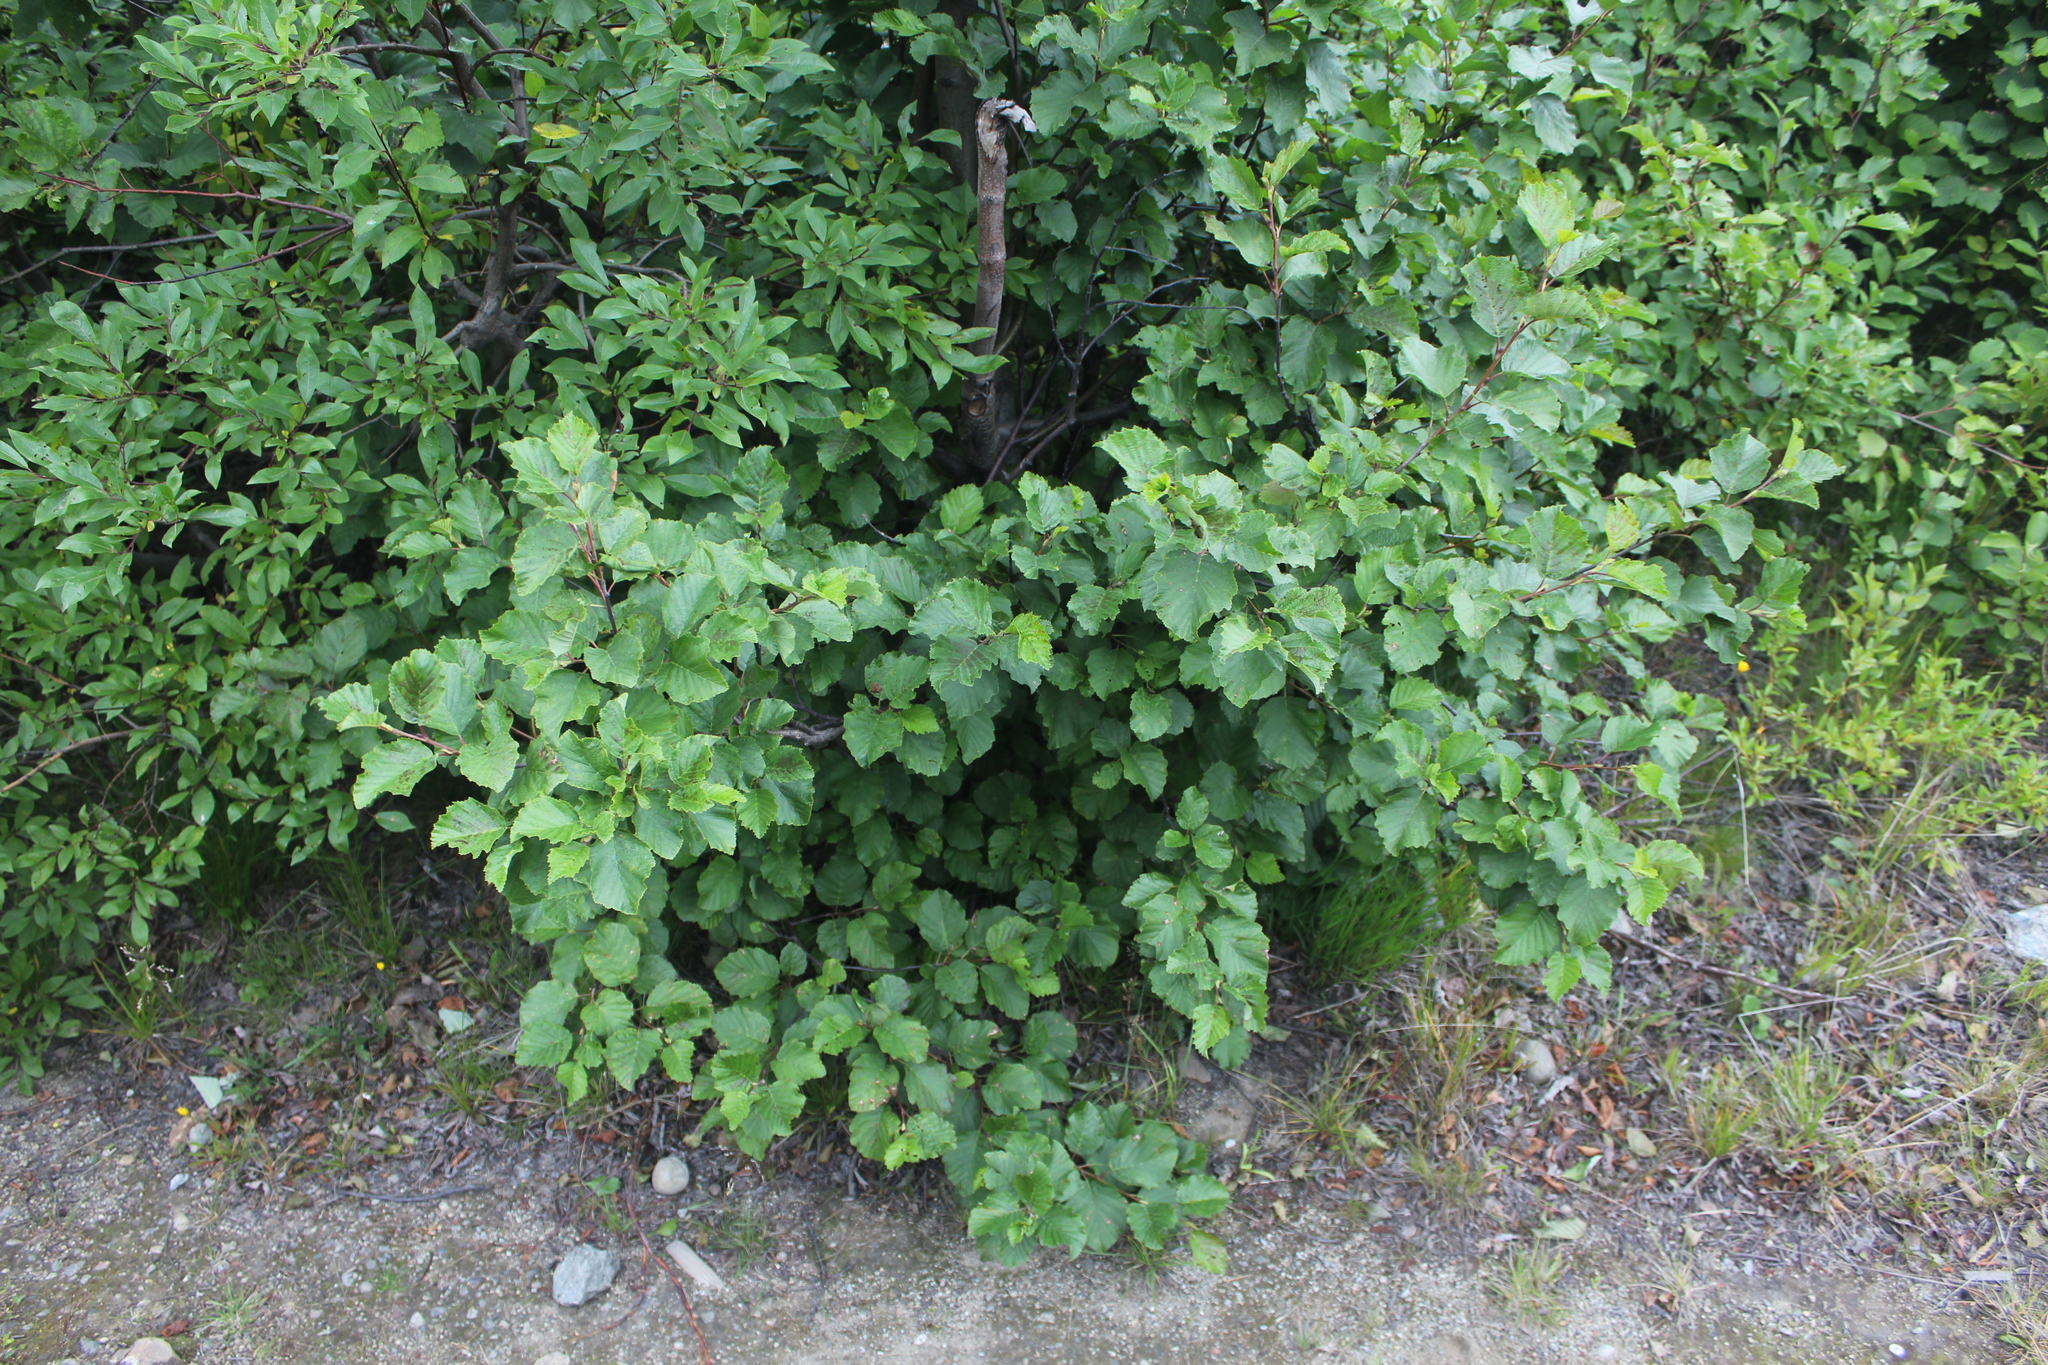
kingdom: Plantae
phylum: Tracheophyta
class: Magnoliopsida
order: Fagales
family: Betulaceae
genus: Alnus
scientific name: Alnus incana
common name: Grey alder
